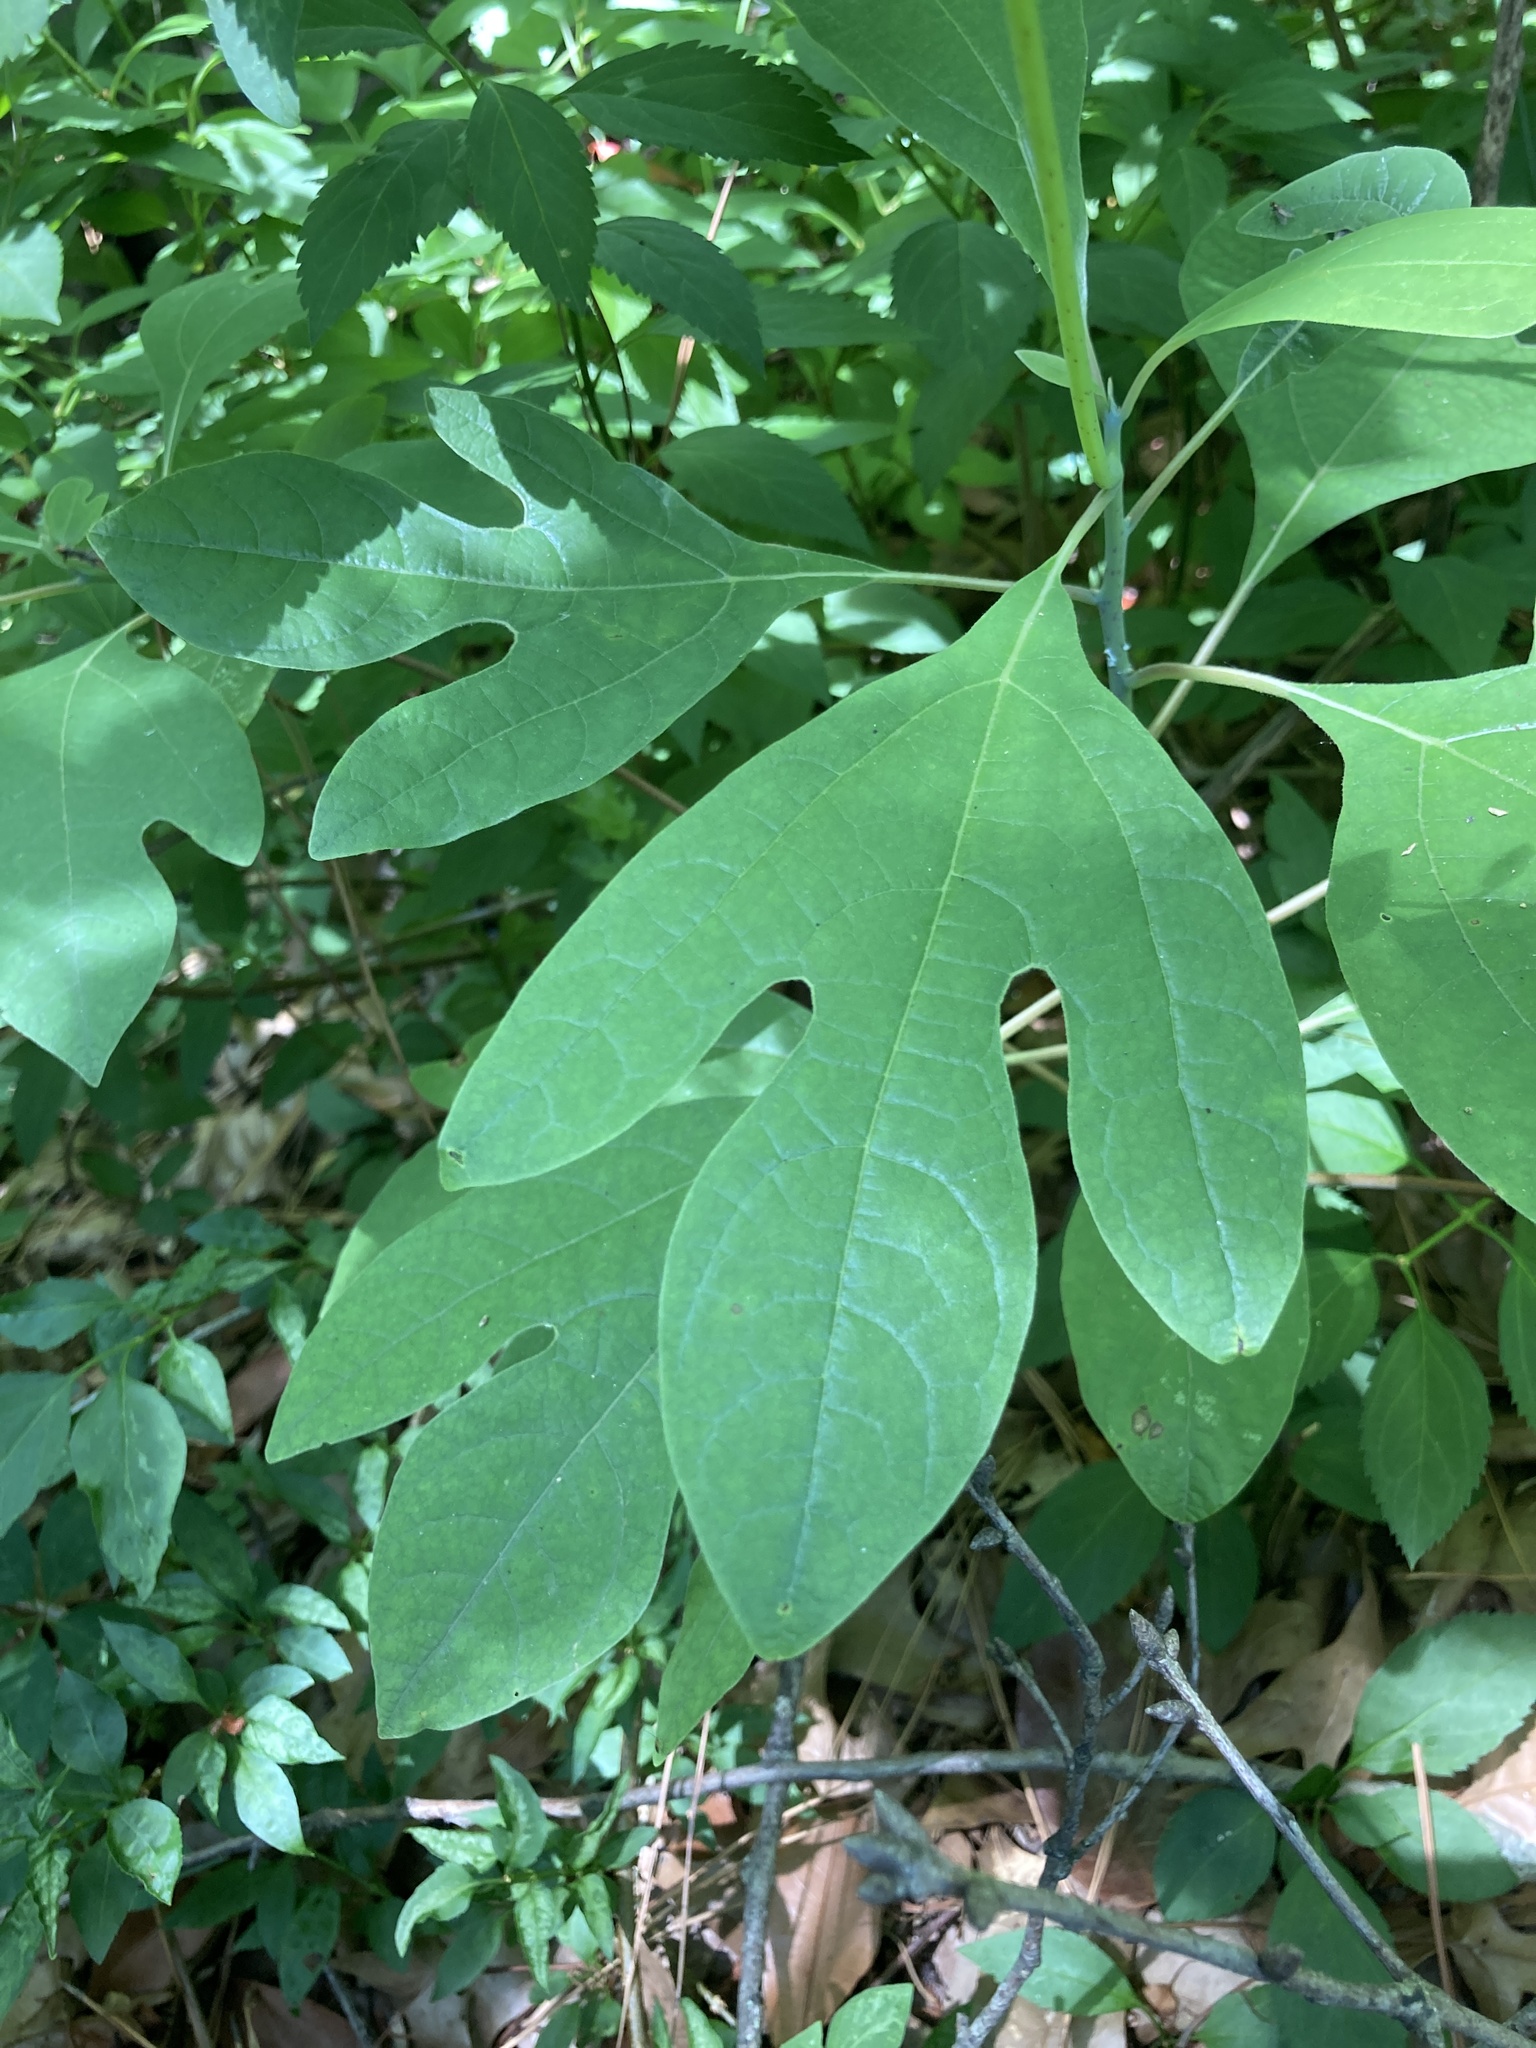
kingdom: Plantae
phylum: Tracheophyta
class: Magnoliopsida
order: Laurales
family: Lauraceae
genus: Sassafras
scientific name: Sassafras albidum
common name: Sassafras
